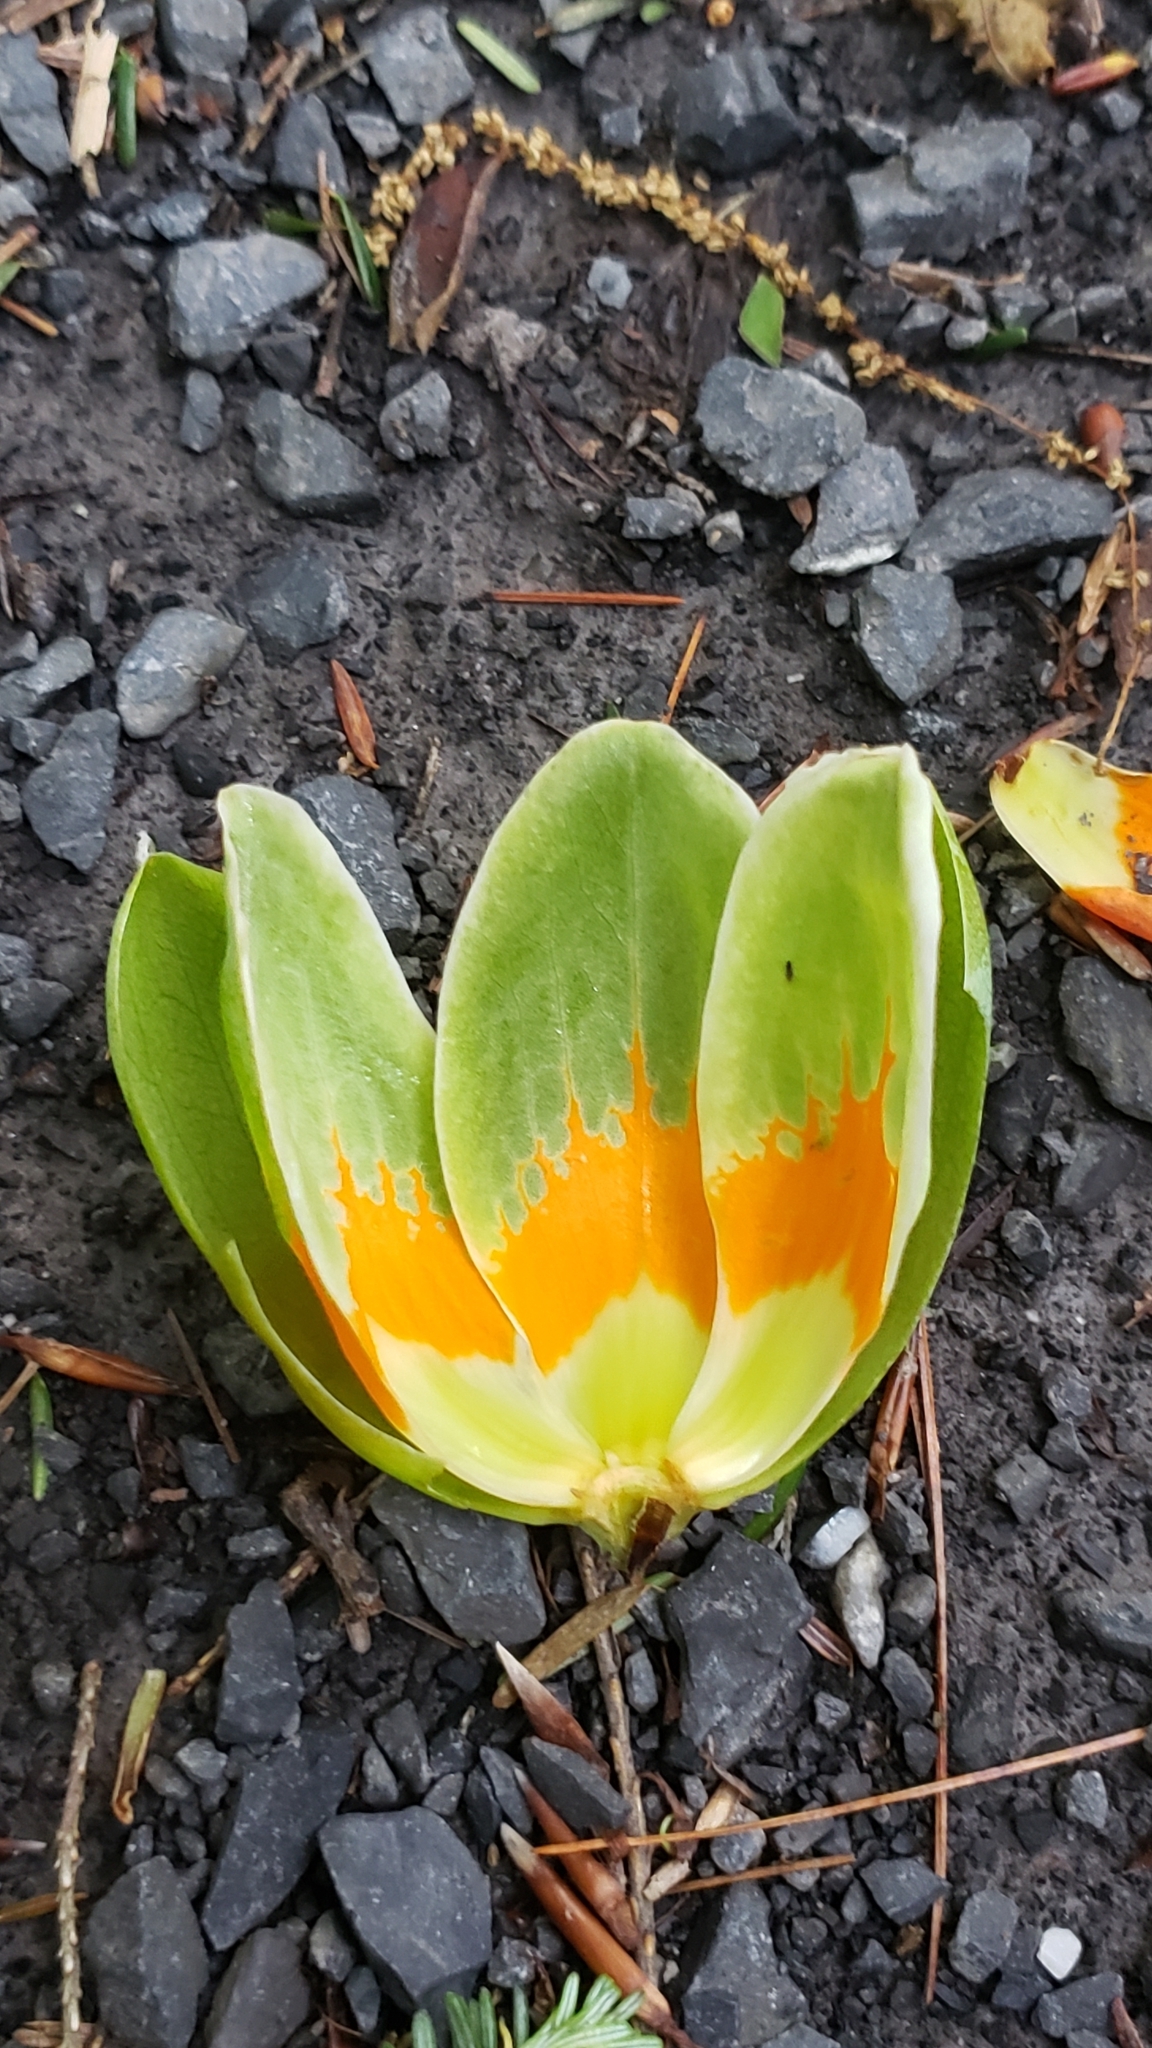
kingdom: Plantae
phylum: Tracheophyta
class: Magnoliopsida
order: Magnoliales
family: Magnoliaceae
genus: Liriodendron
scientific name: Liriodendron tulipifera
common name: Tulip tree
